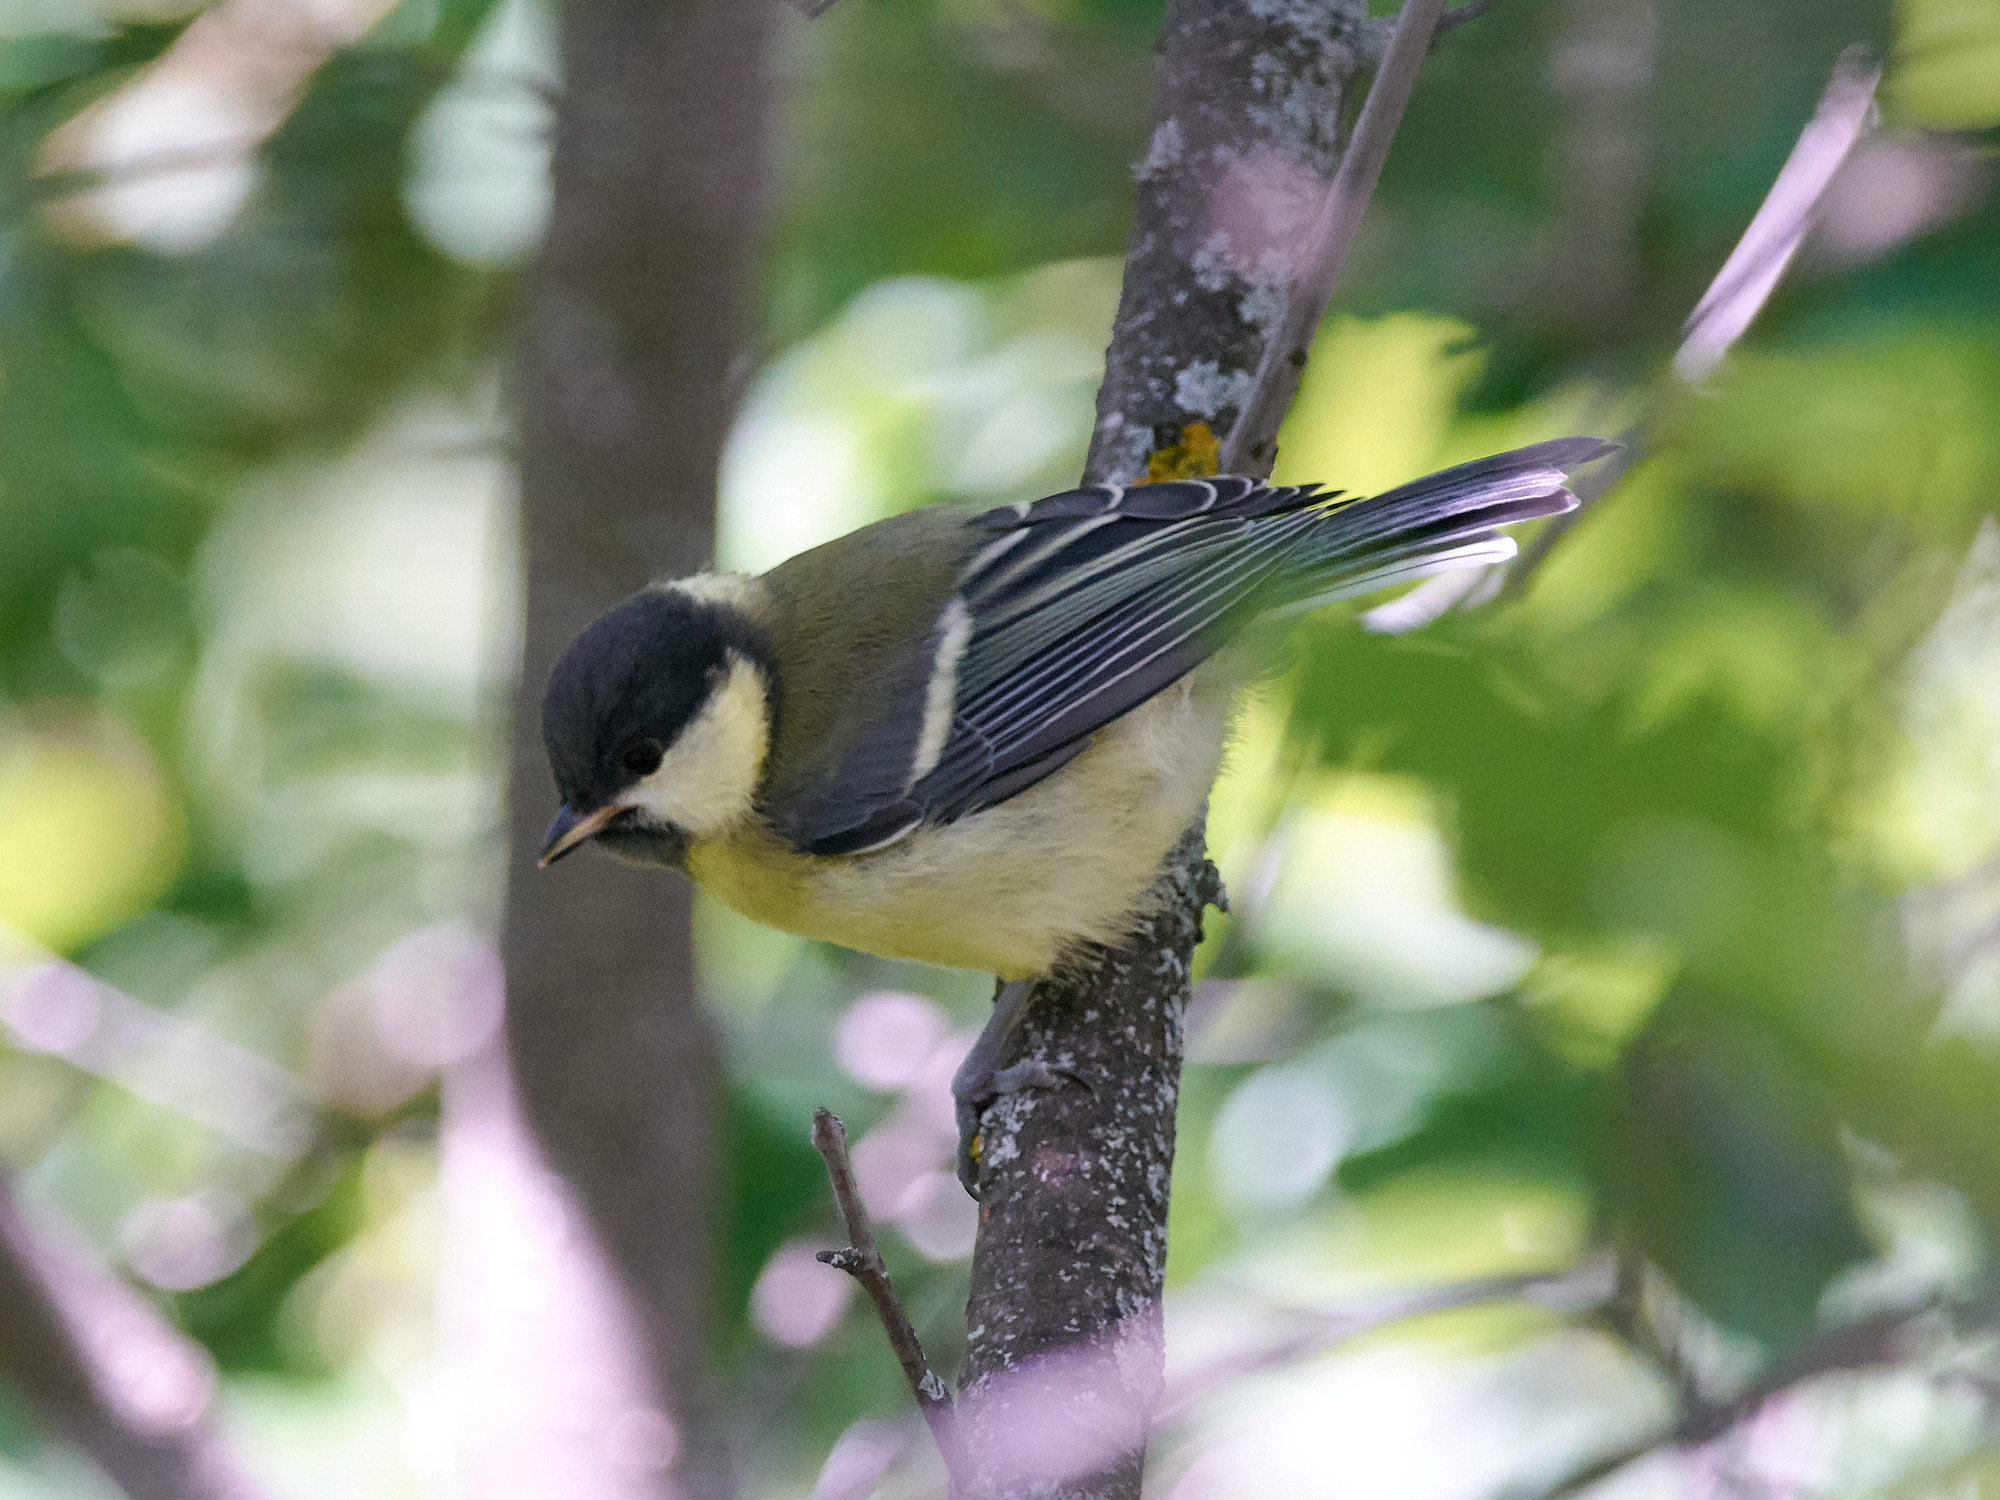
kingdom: Animalia
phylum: Chordata
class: Aves
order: Passeriformes
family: Paridae
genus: Parus
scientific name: Parus major
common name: Great tit
